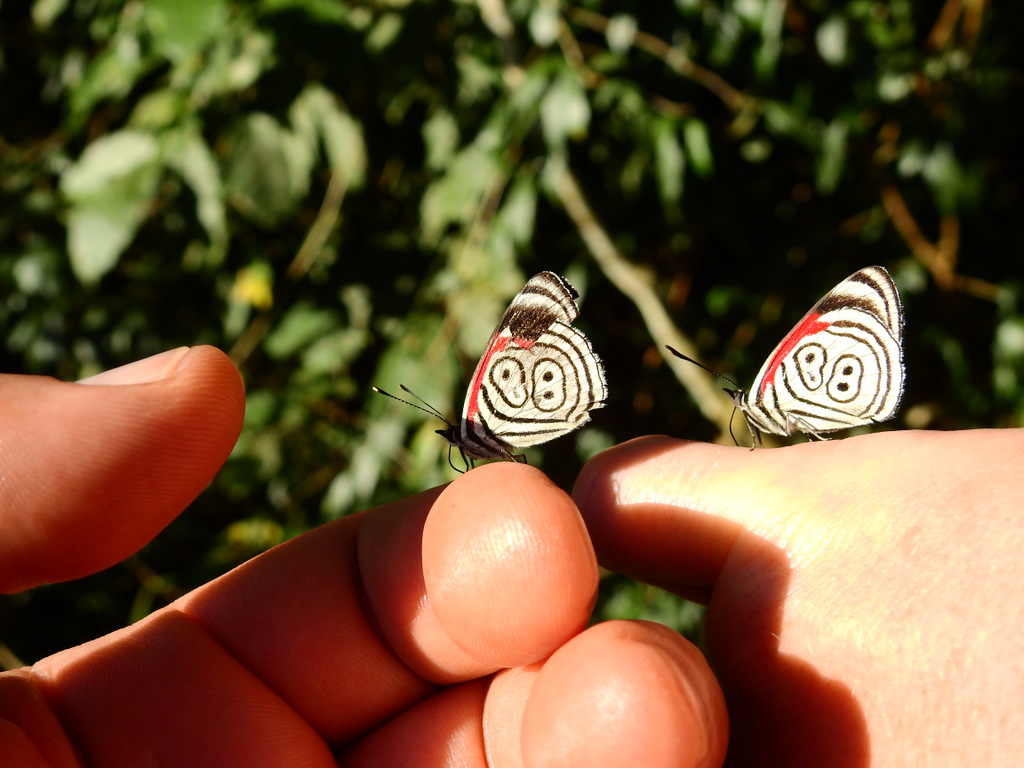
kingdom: Animalia
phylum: Arthropoda
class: Insecta
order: Lepidoptera
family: Nymphalidae
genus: Diaethria
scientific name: Diaethria clymena
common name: Widespread eighty-eight
